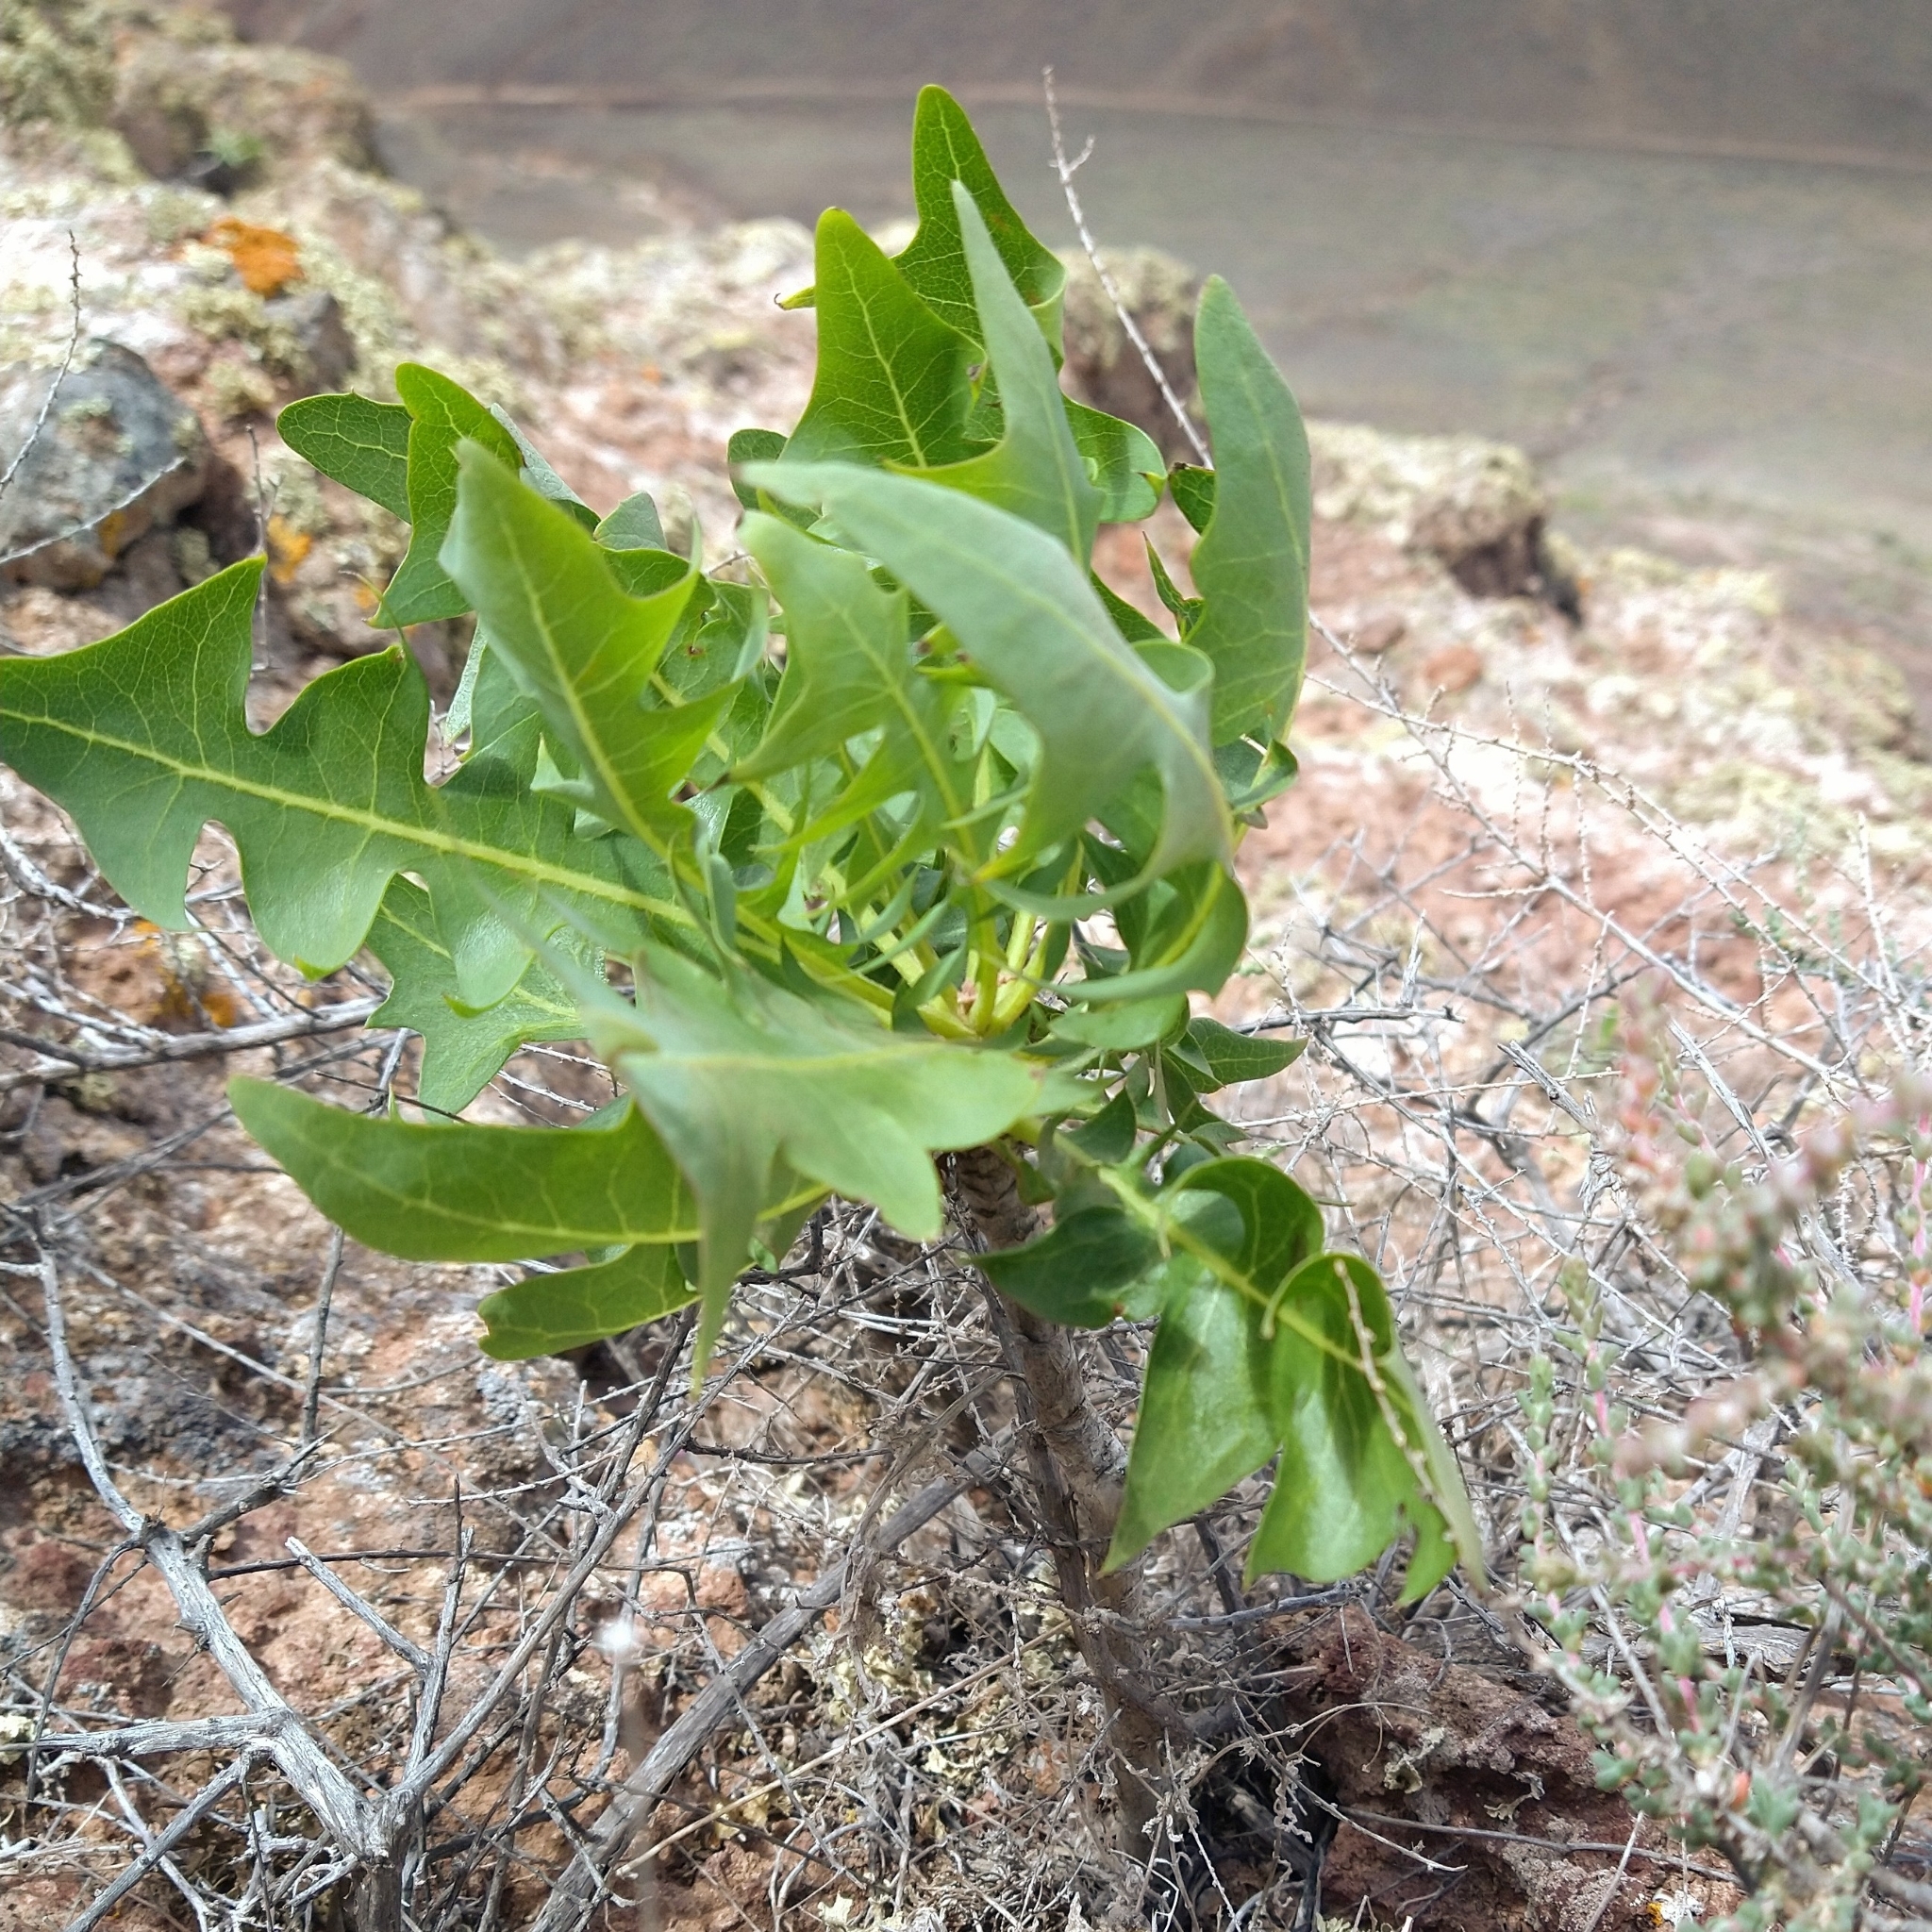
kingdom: Plantae
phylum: Tracheophyta
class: Magnoliopsida
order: Asterales
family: Asteraceae
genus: Sonchus
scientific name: Sonchus pinnatifidus
